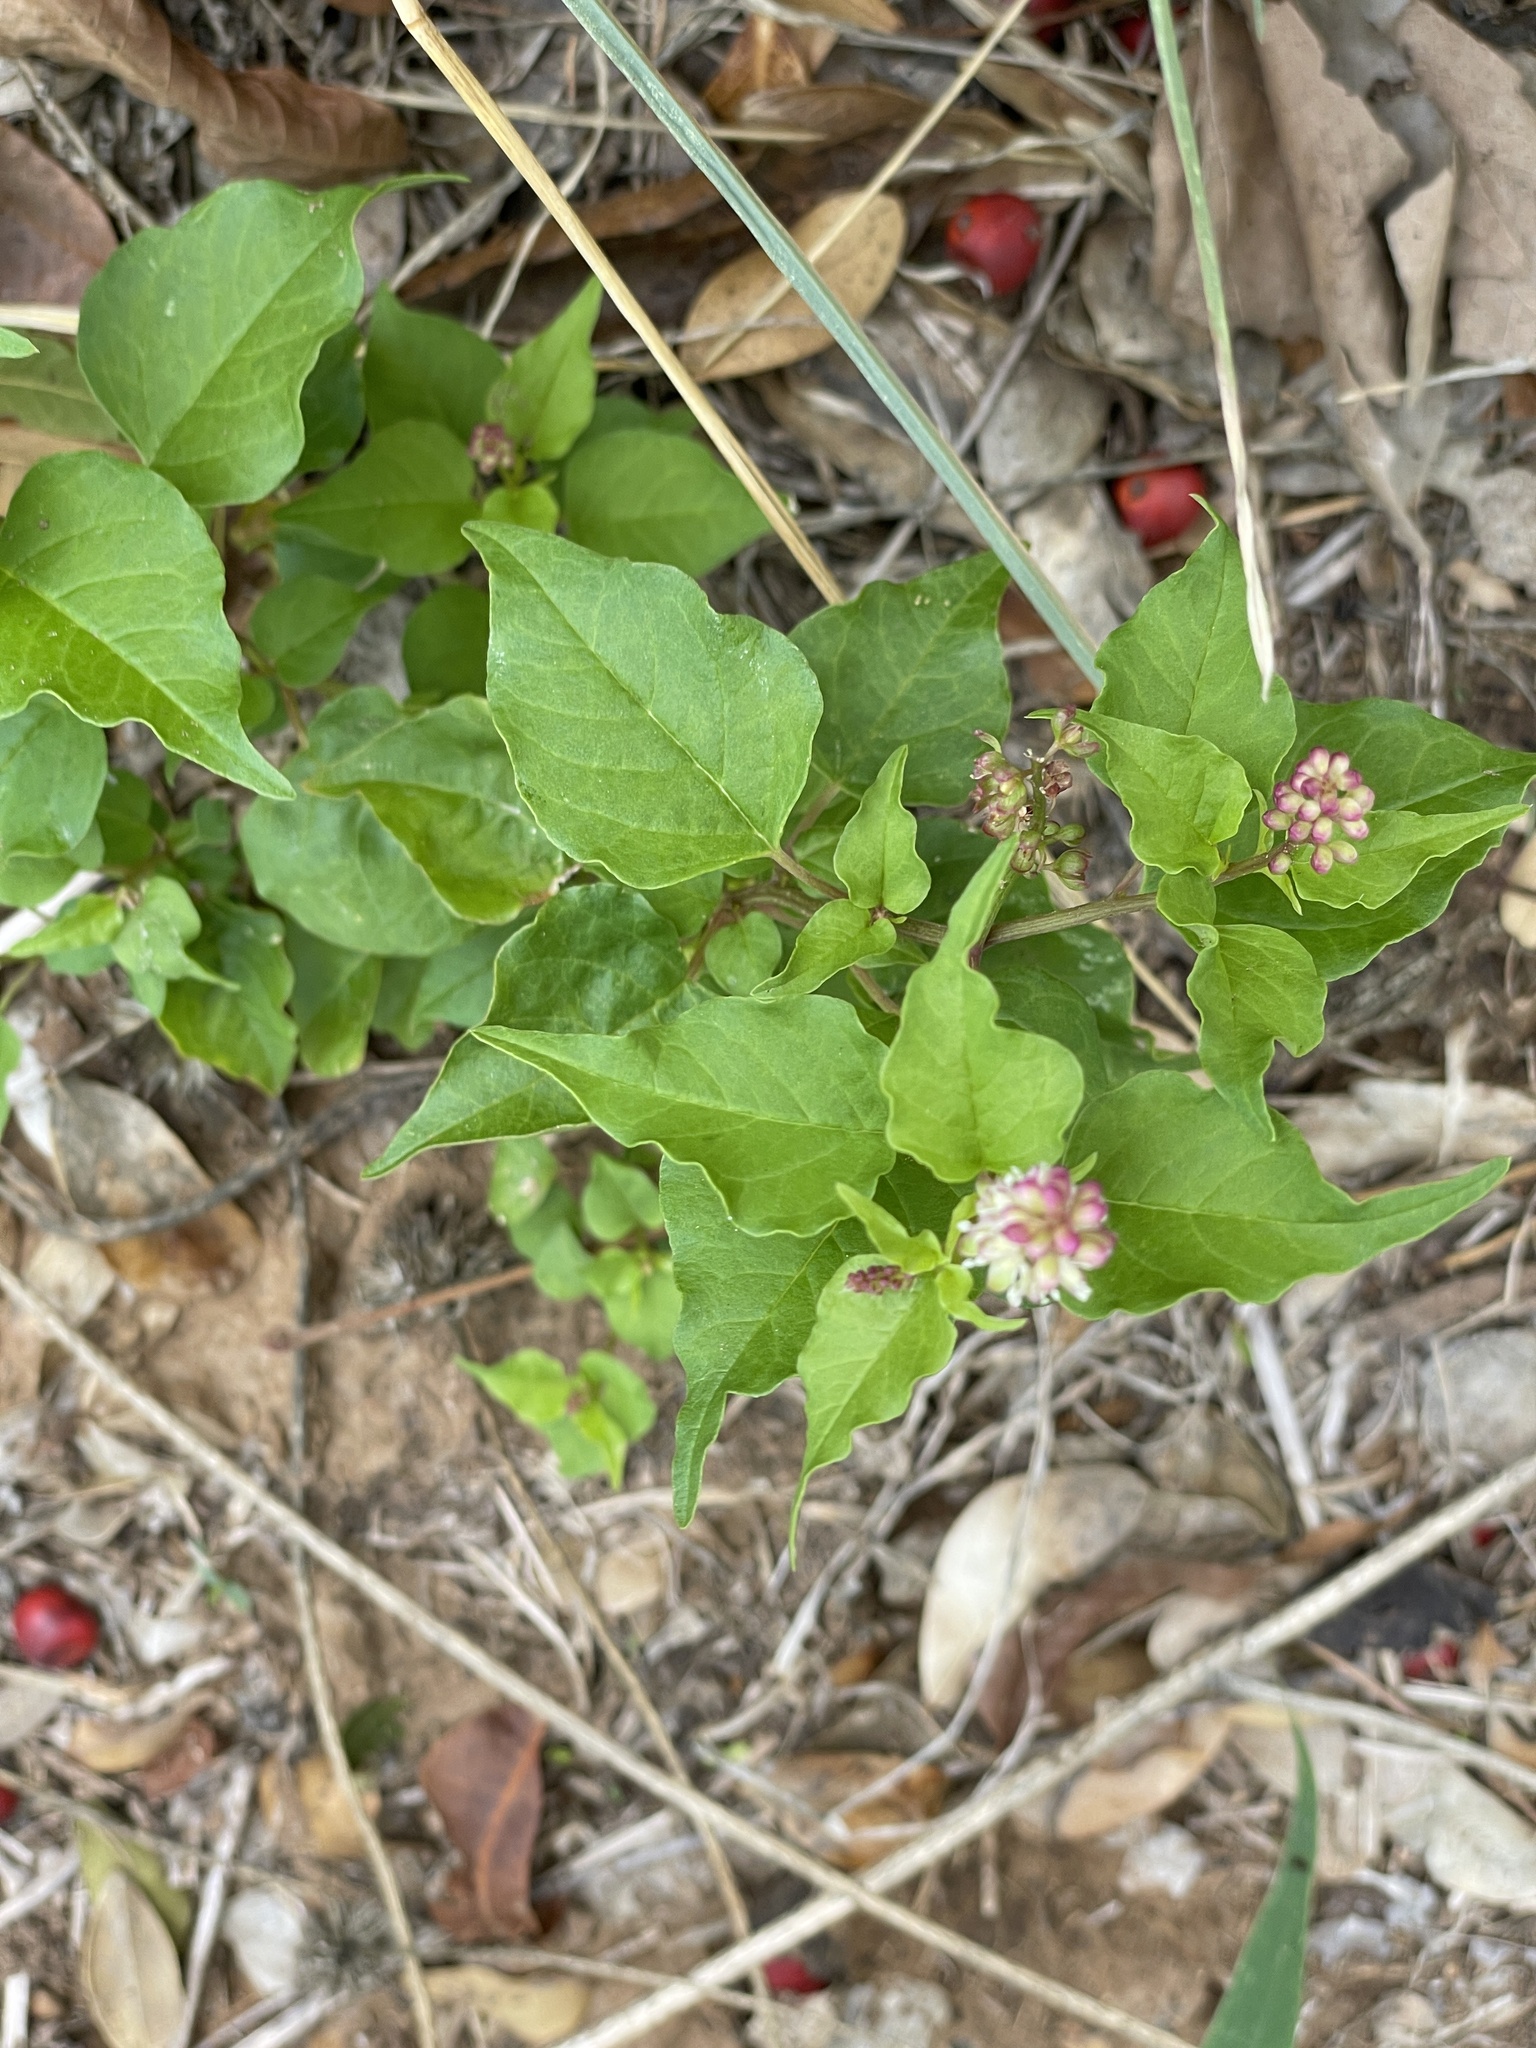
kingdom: Plantae
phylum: Tracheophyta
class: Magnoliopsida
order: Caryophyllales
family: Phytolaccaceae
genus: Rivina
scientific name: Rivina humilis
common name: Rougeplant
